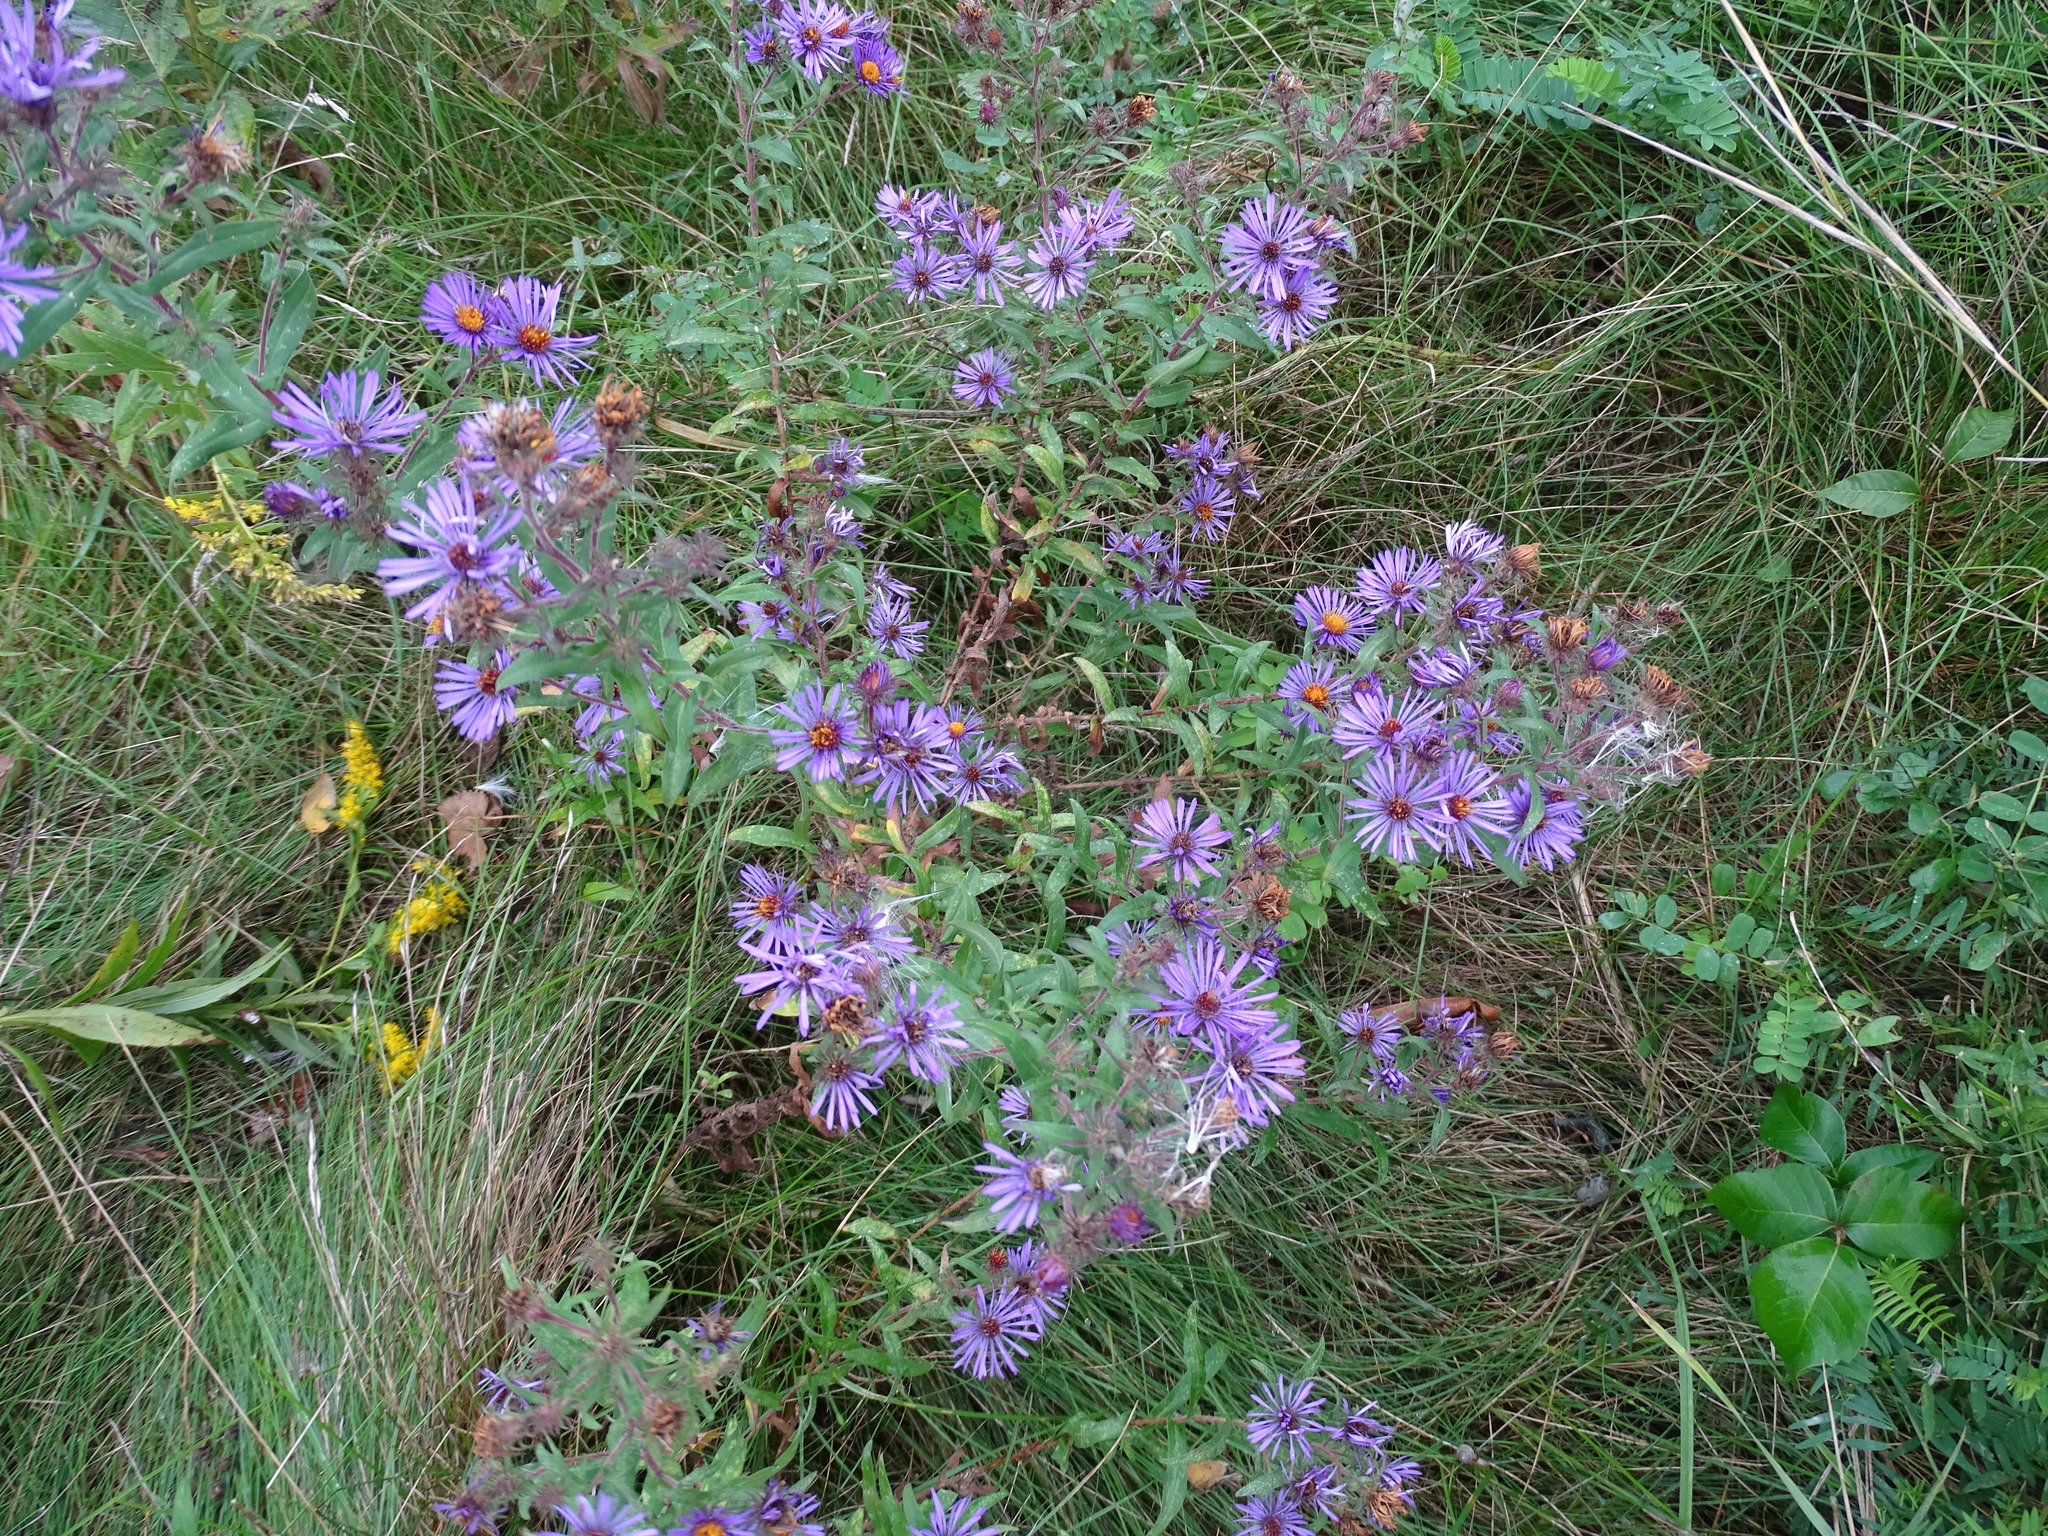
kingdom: Plantae
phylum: Tracheophyta
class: Magnoliopsida
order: Asterales
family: Asteraceae
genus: Symphyotrichum
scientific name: Symphyotrichum novae-angliae
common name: Michaelmas daisy
